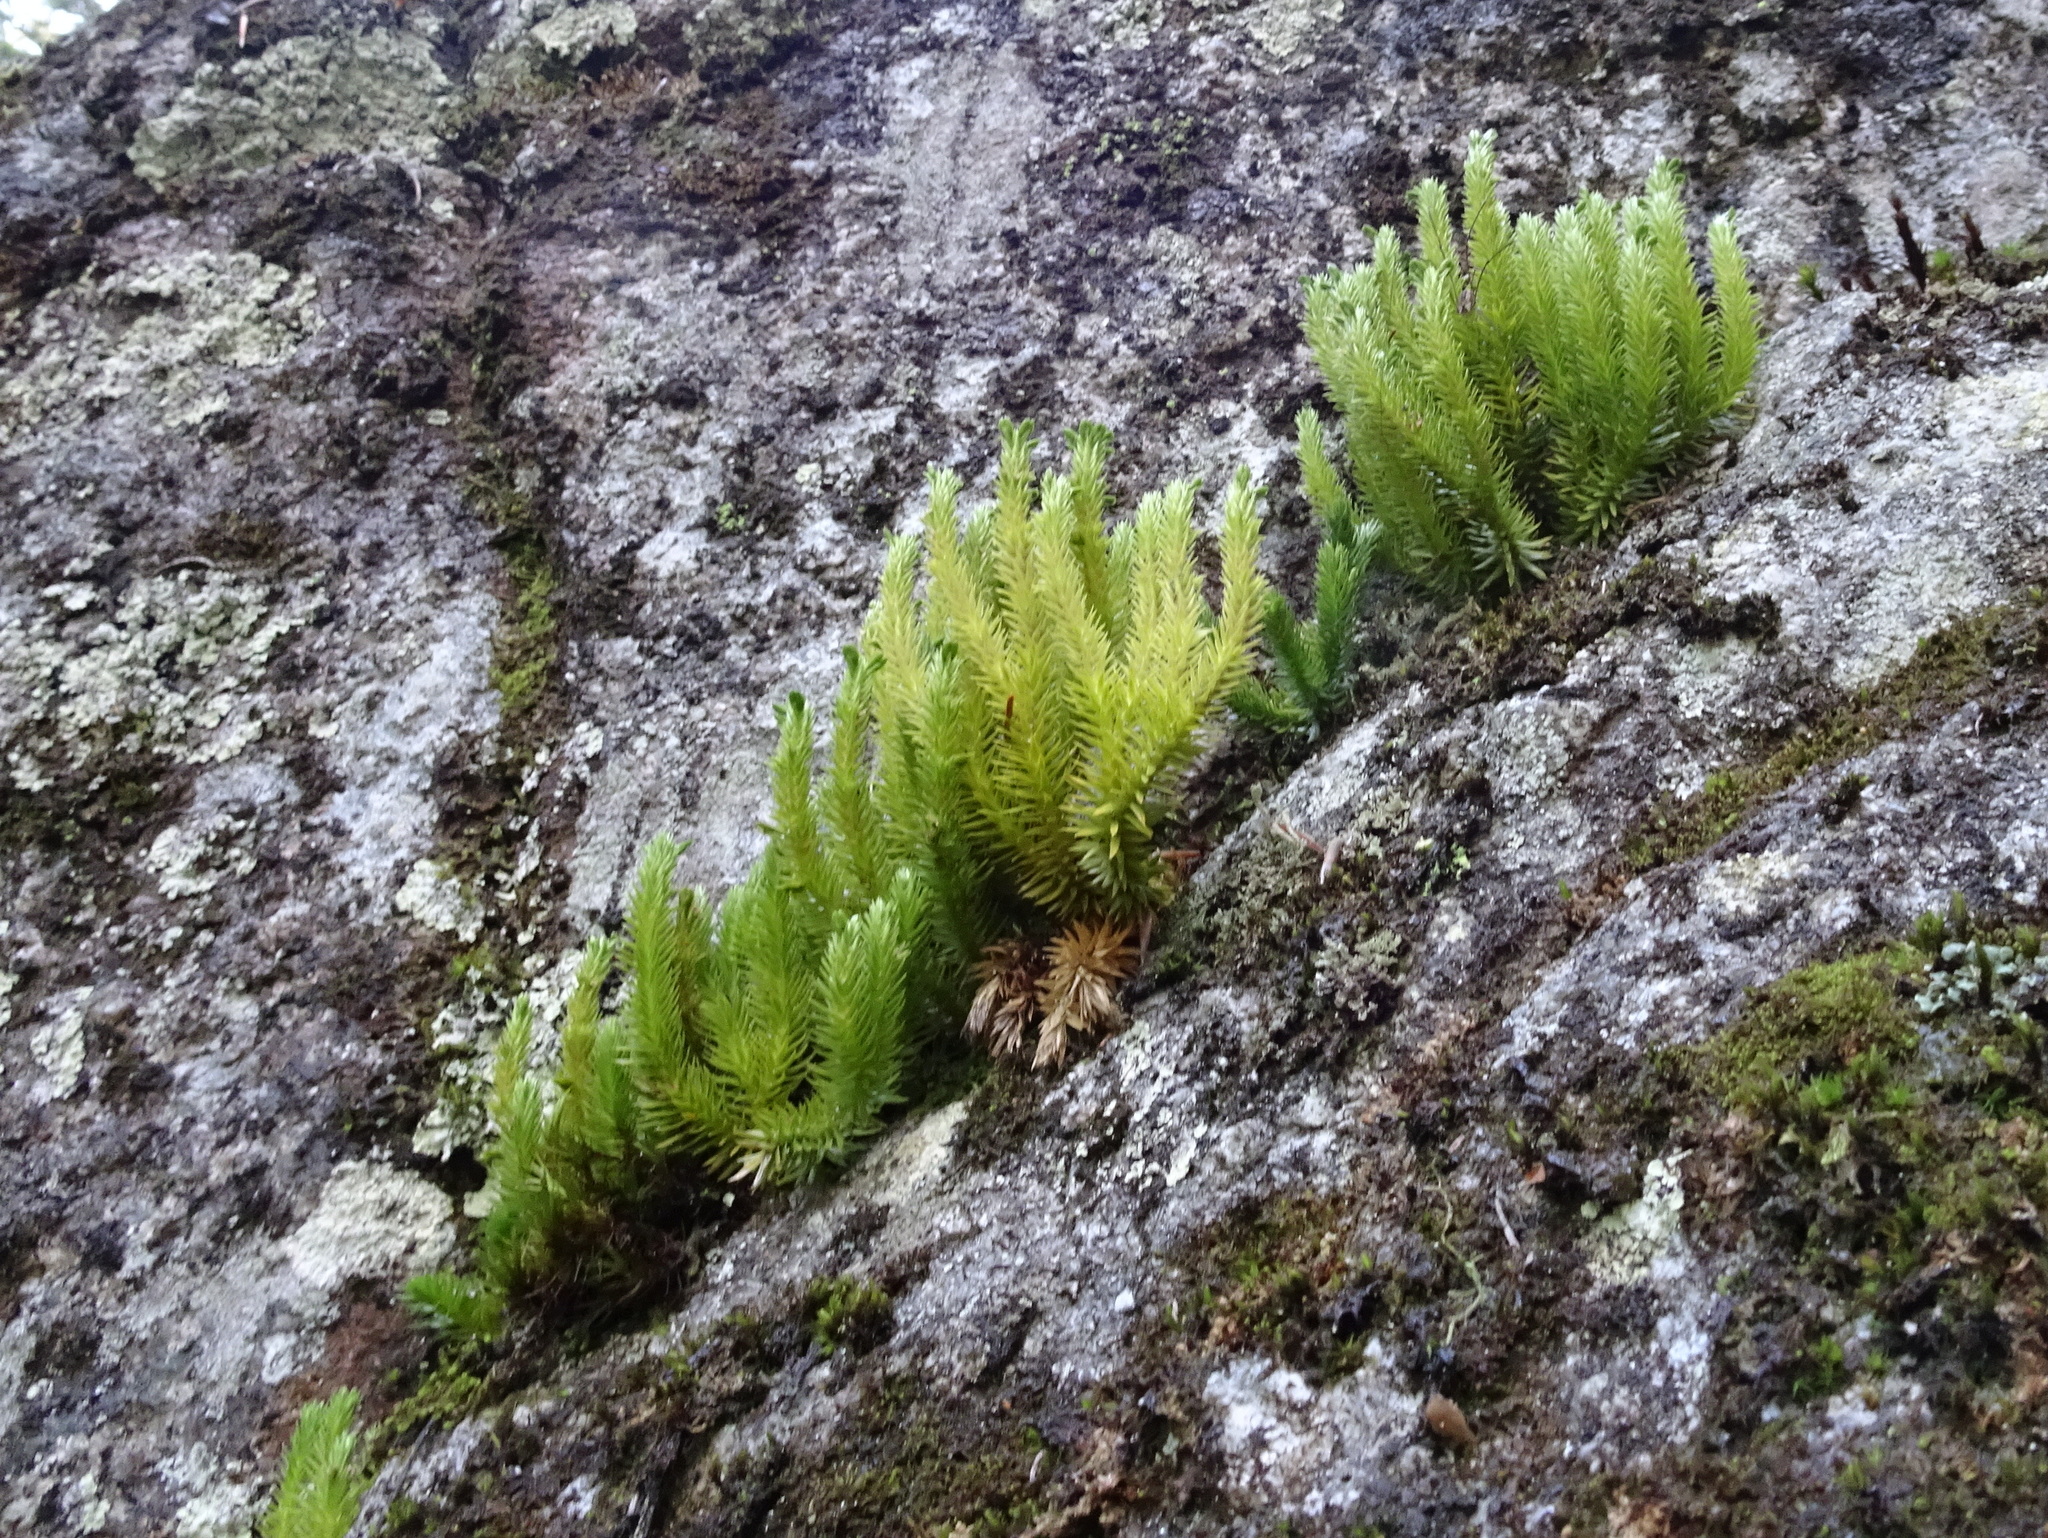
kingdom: Plantae
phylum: Tracheophyta
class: Lycopodiopsida
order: Lycopodiales
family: Lycopodiaceae
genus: Huperzia
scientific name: Huperzia selago
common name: Northern firmoss
